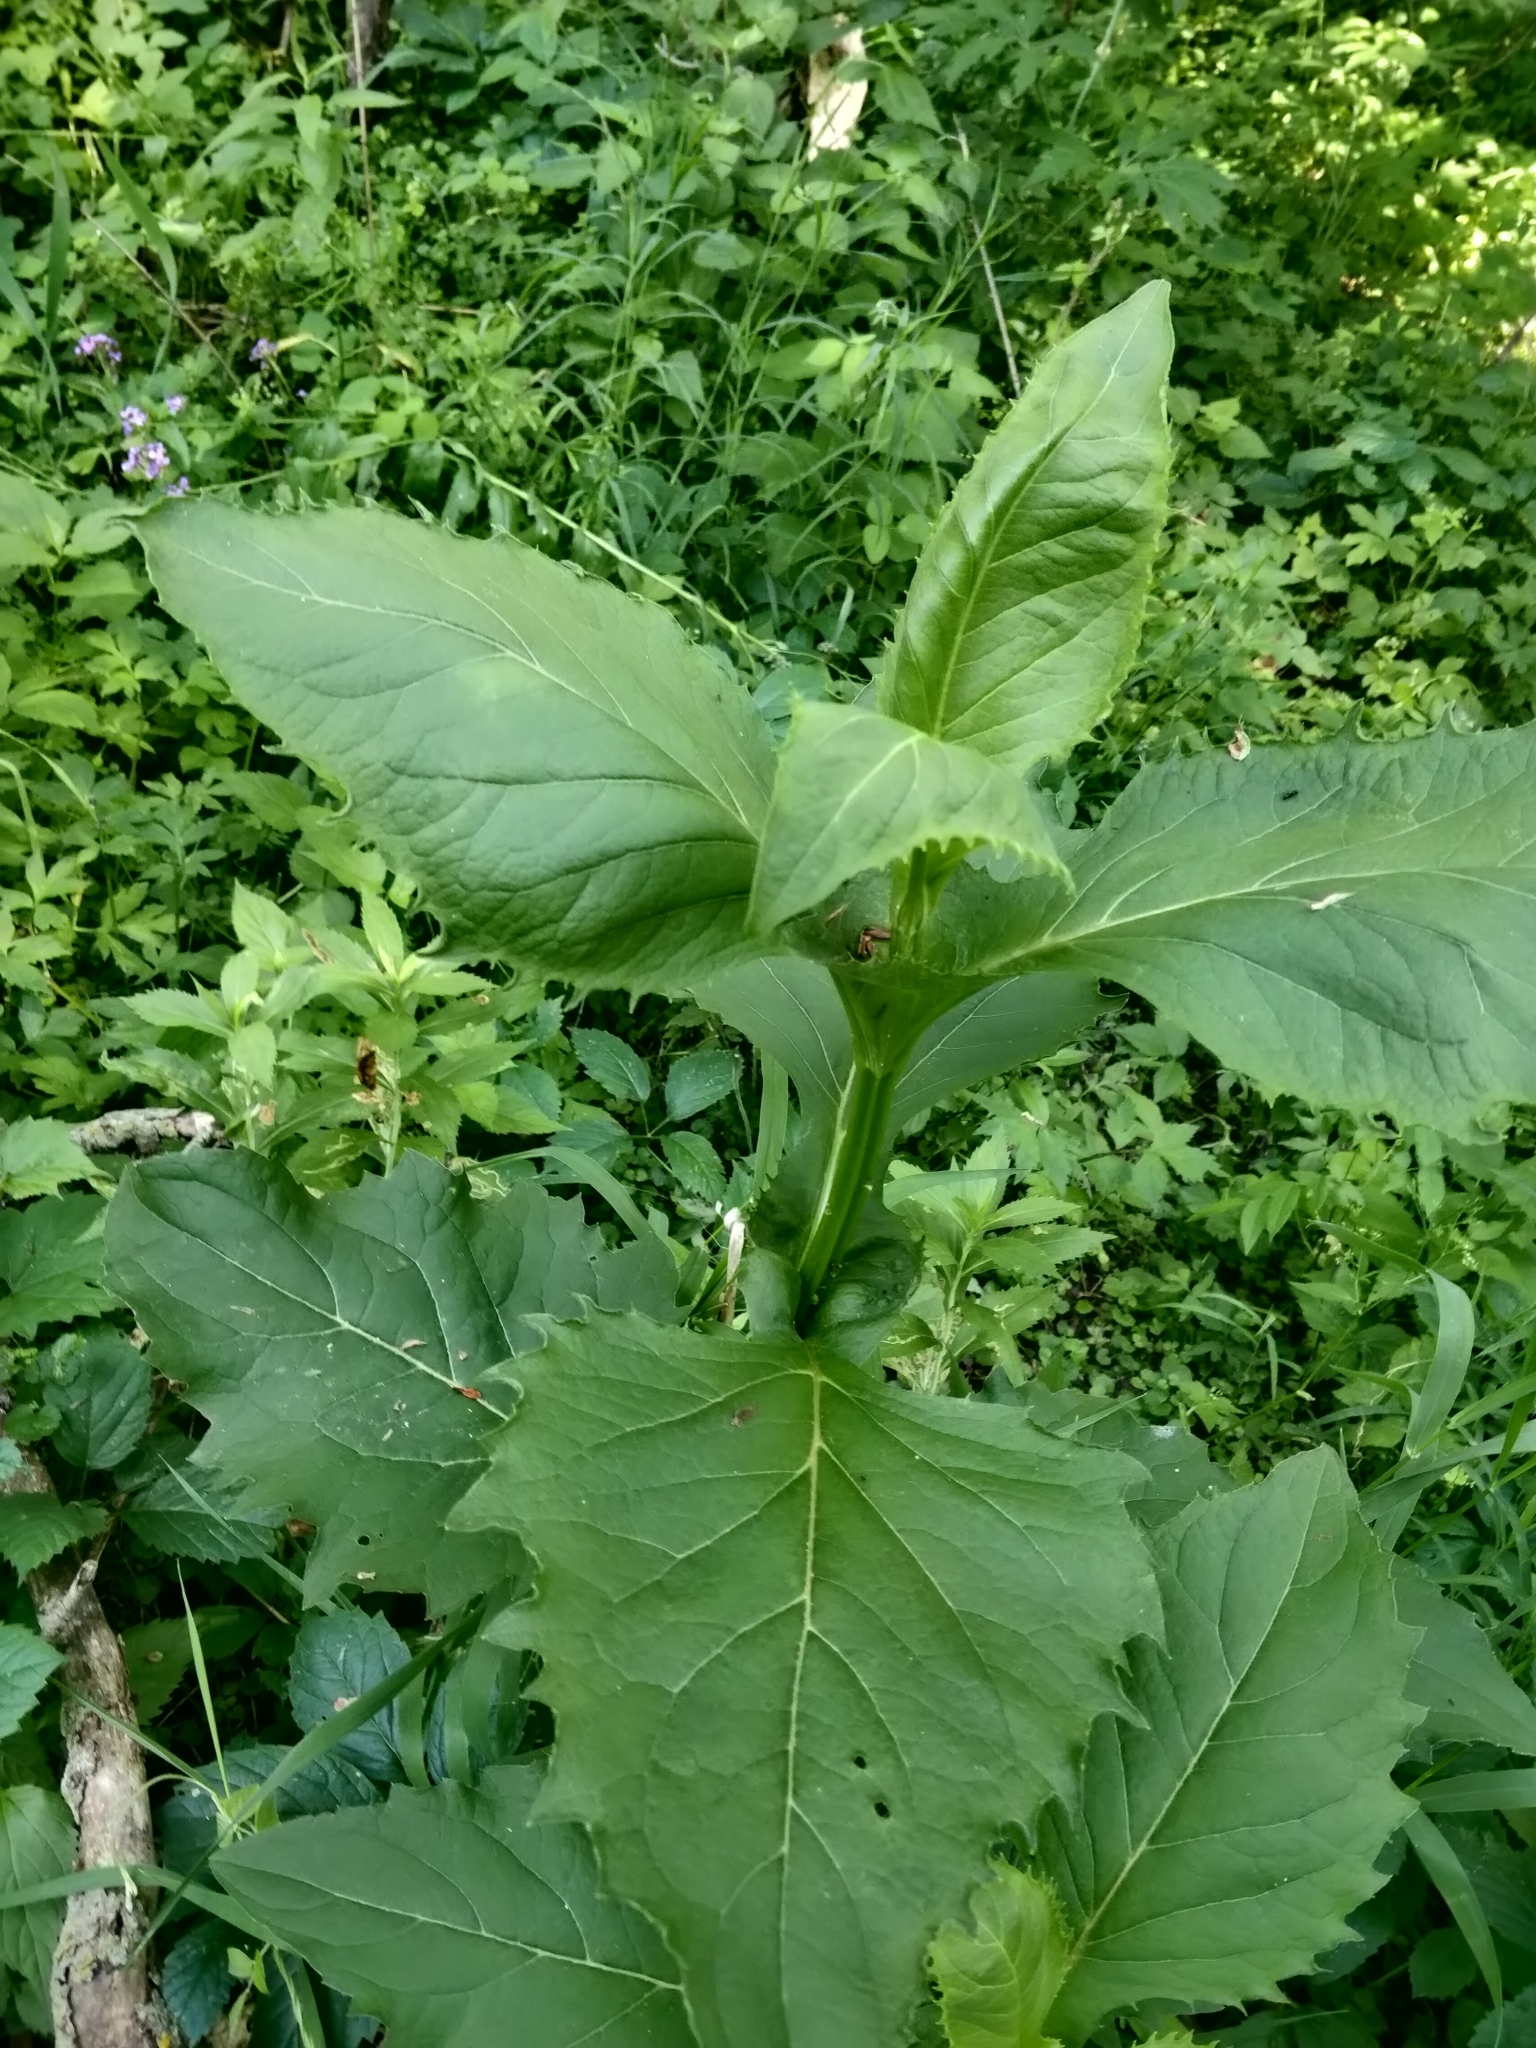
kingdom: Plantae
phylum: Tracheophyta
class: Magnoliopsida
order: Asterales
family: Asteraceae
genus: Silphium
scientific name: Silphium perfoliatum
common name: Cup-plant
